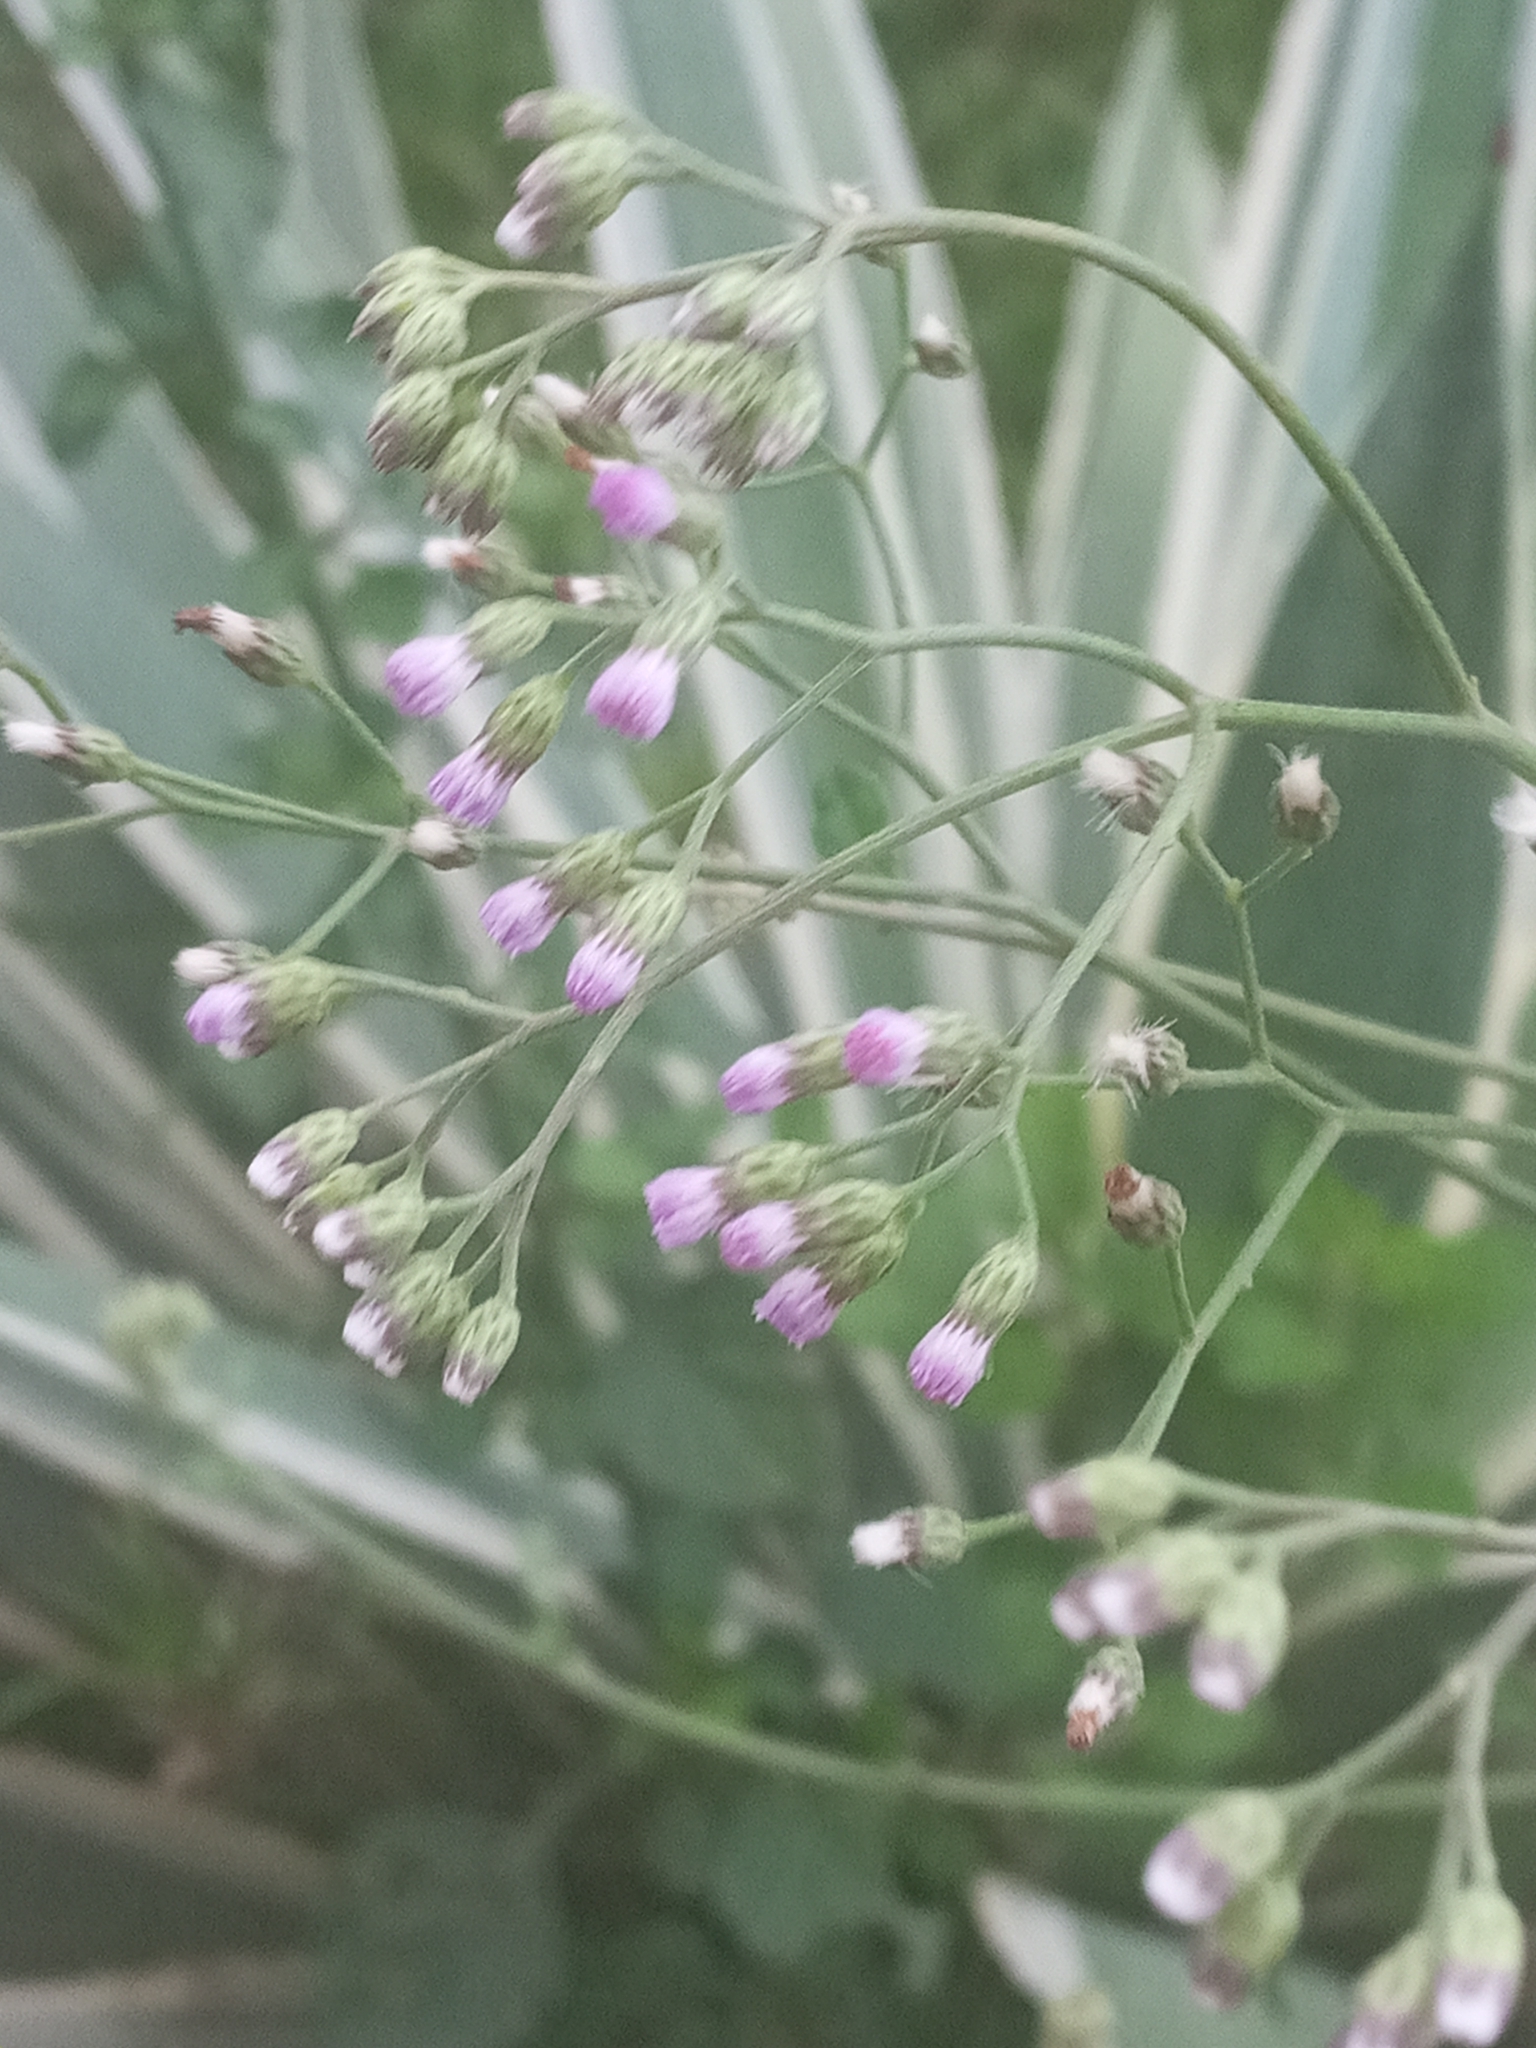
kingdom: Plantae
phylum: Tracheophyta
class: Magnoliopsida
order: Asterales
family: Asteraceae
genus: Cyanthillium
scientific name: Cyanthillium cinereum
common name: Little ironweed
